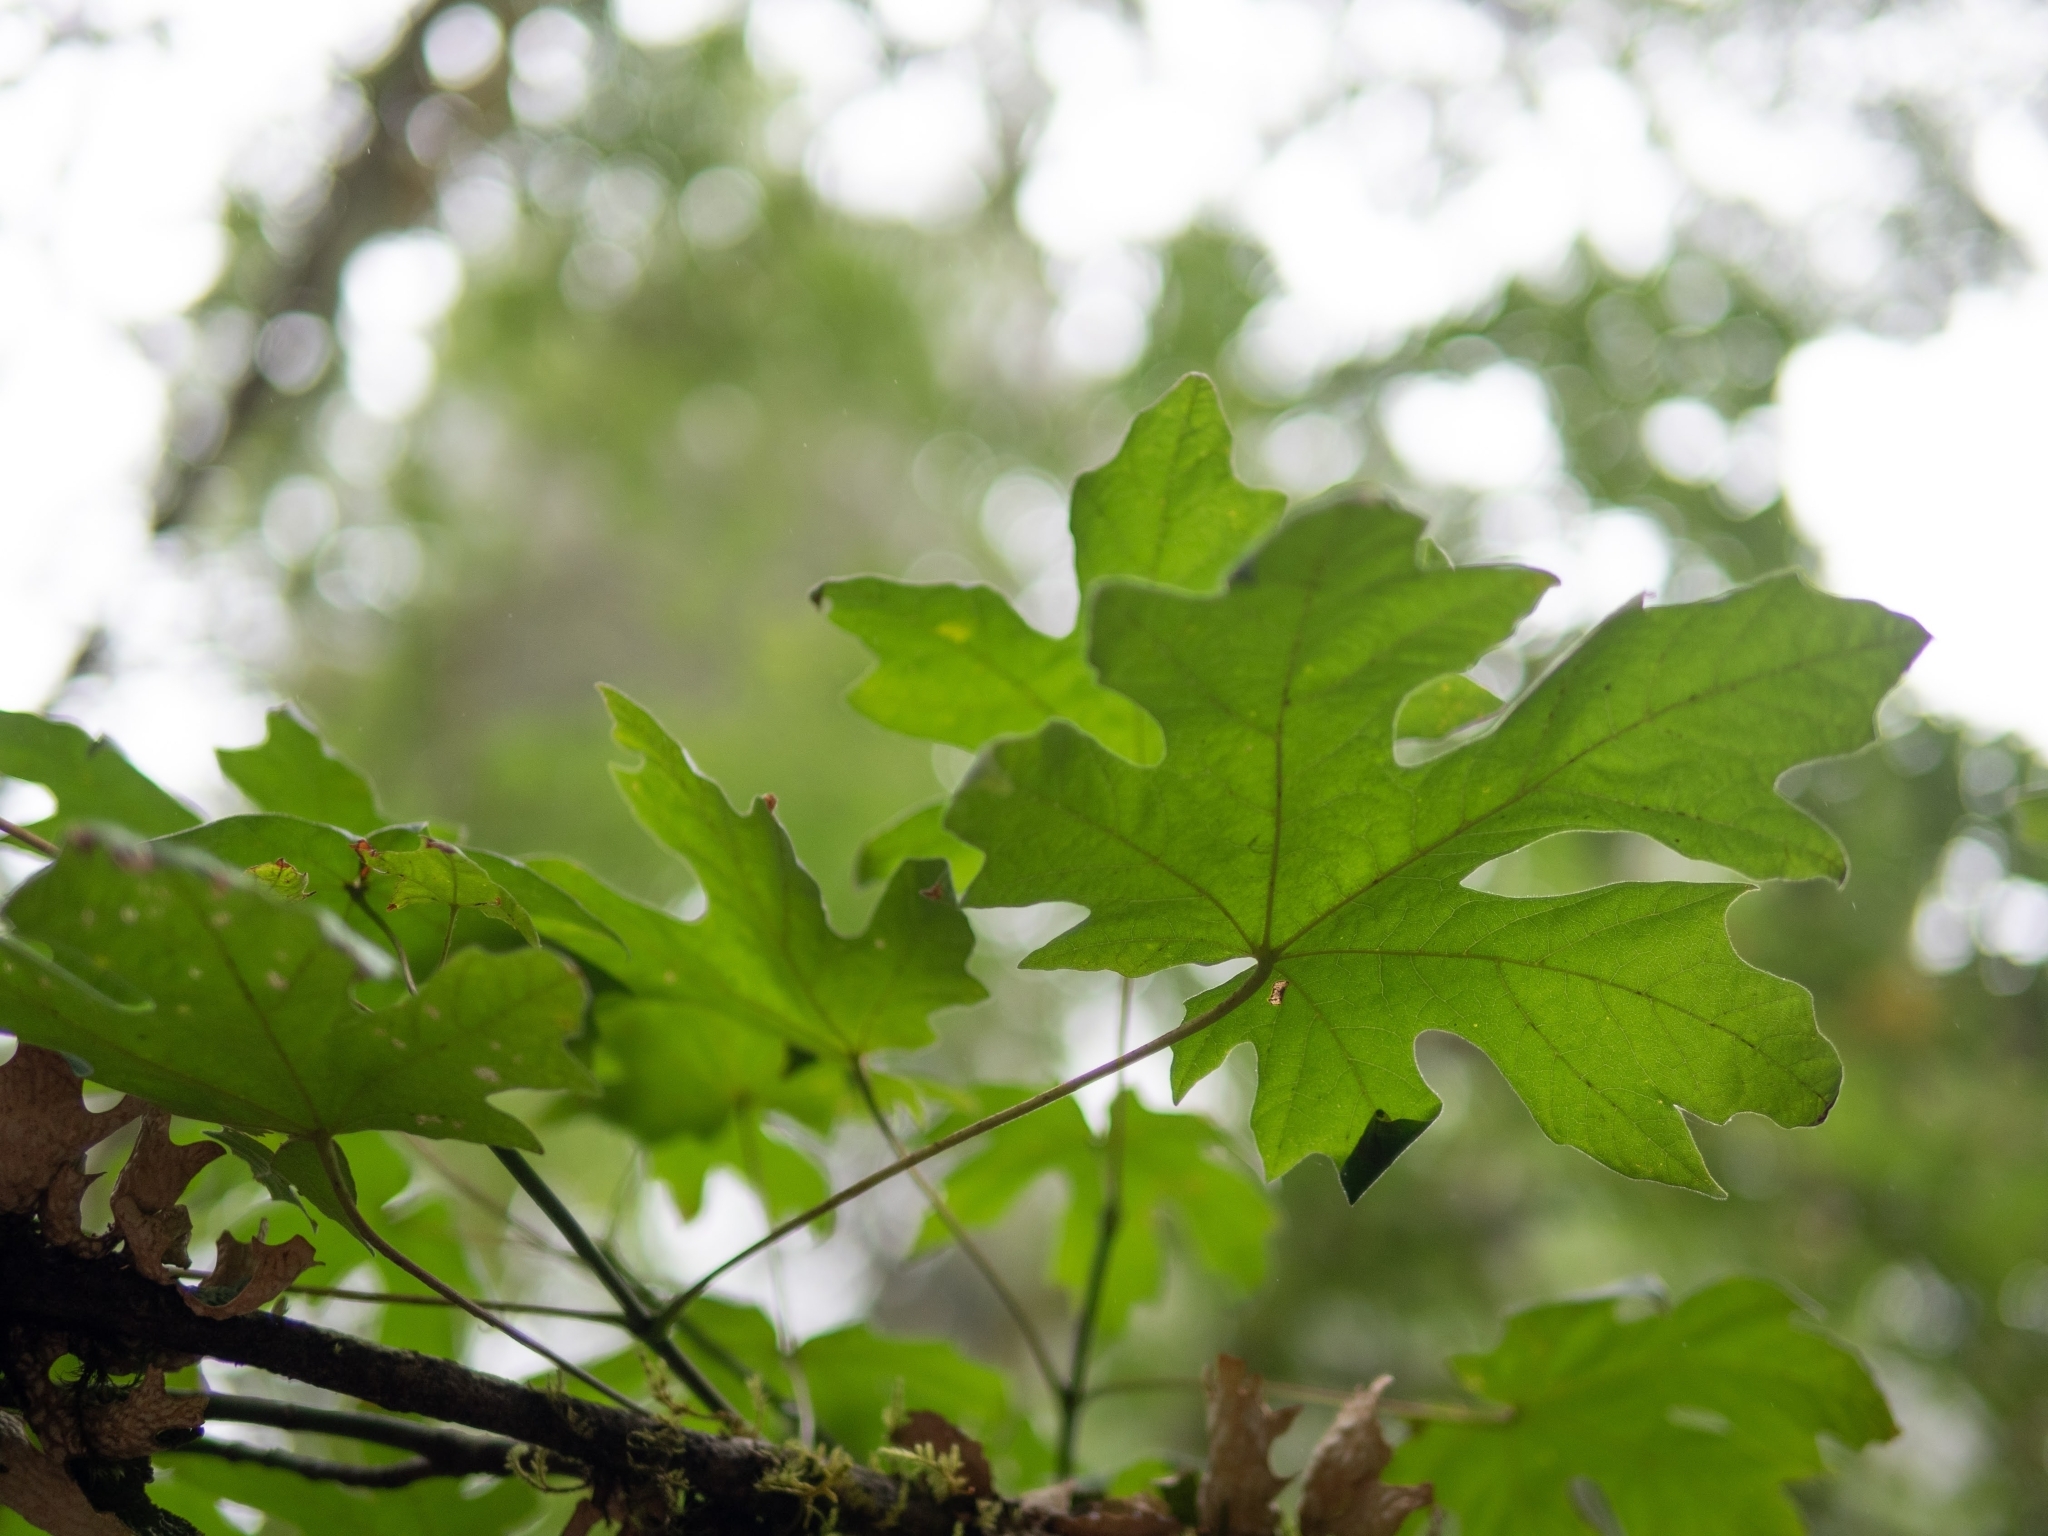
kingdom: Plantae
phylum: Tracheophyta
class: Magnoliopsida
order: Sapindales
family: Sapindaceae
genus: Acer
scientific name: Acer macrophyllum
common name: Oregon maple
